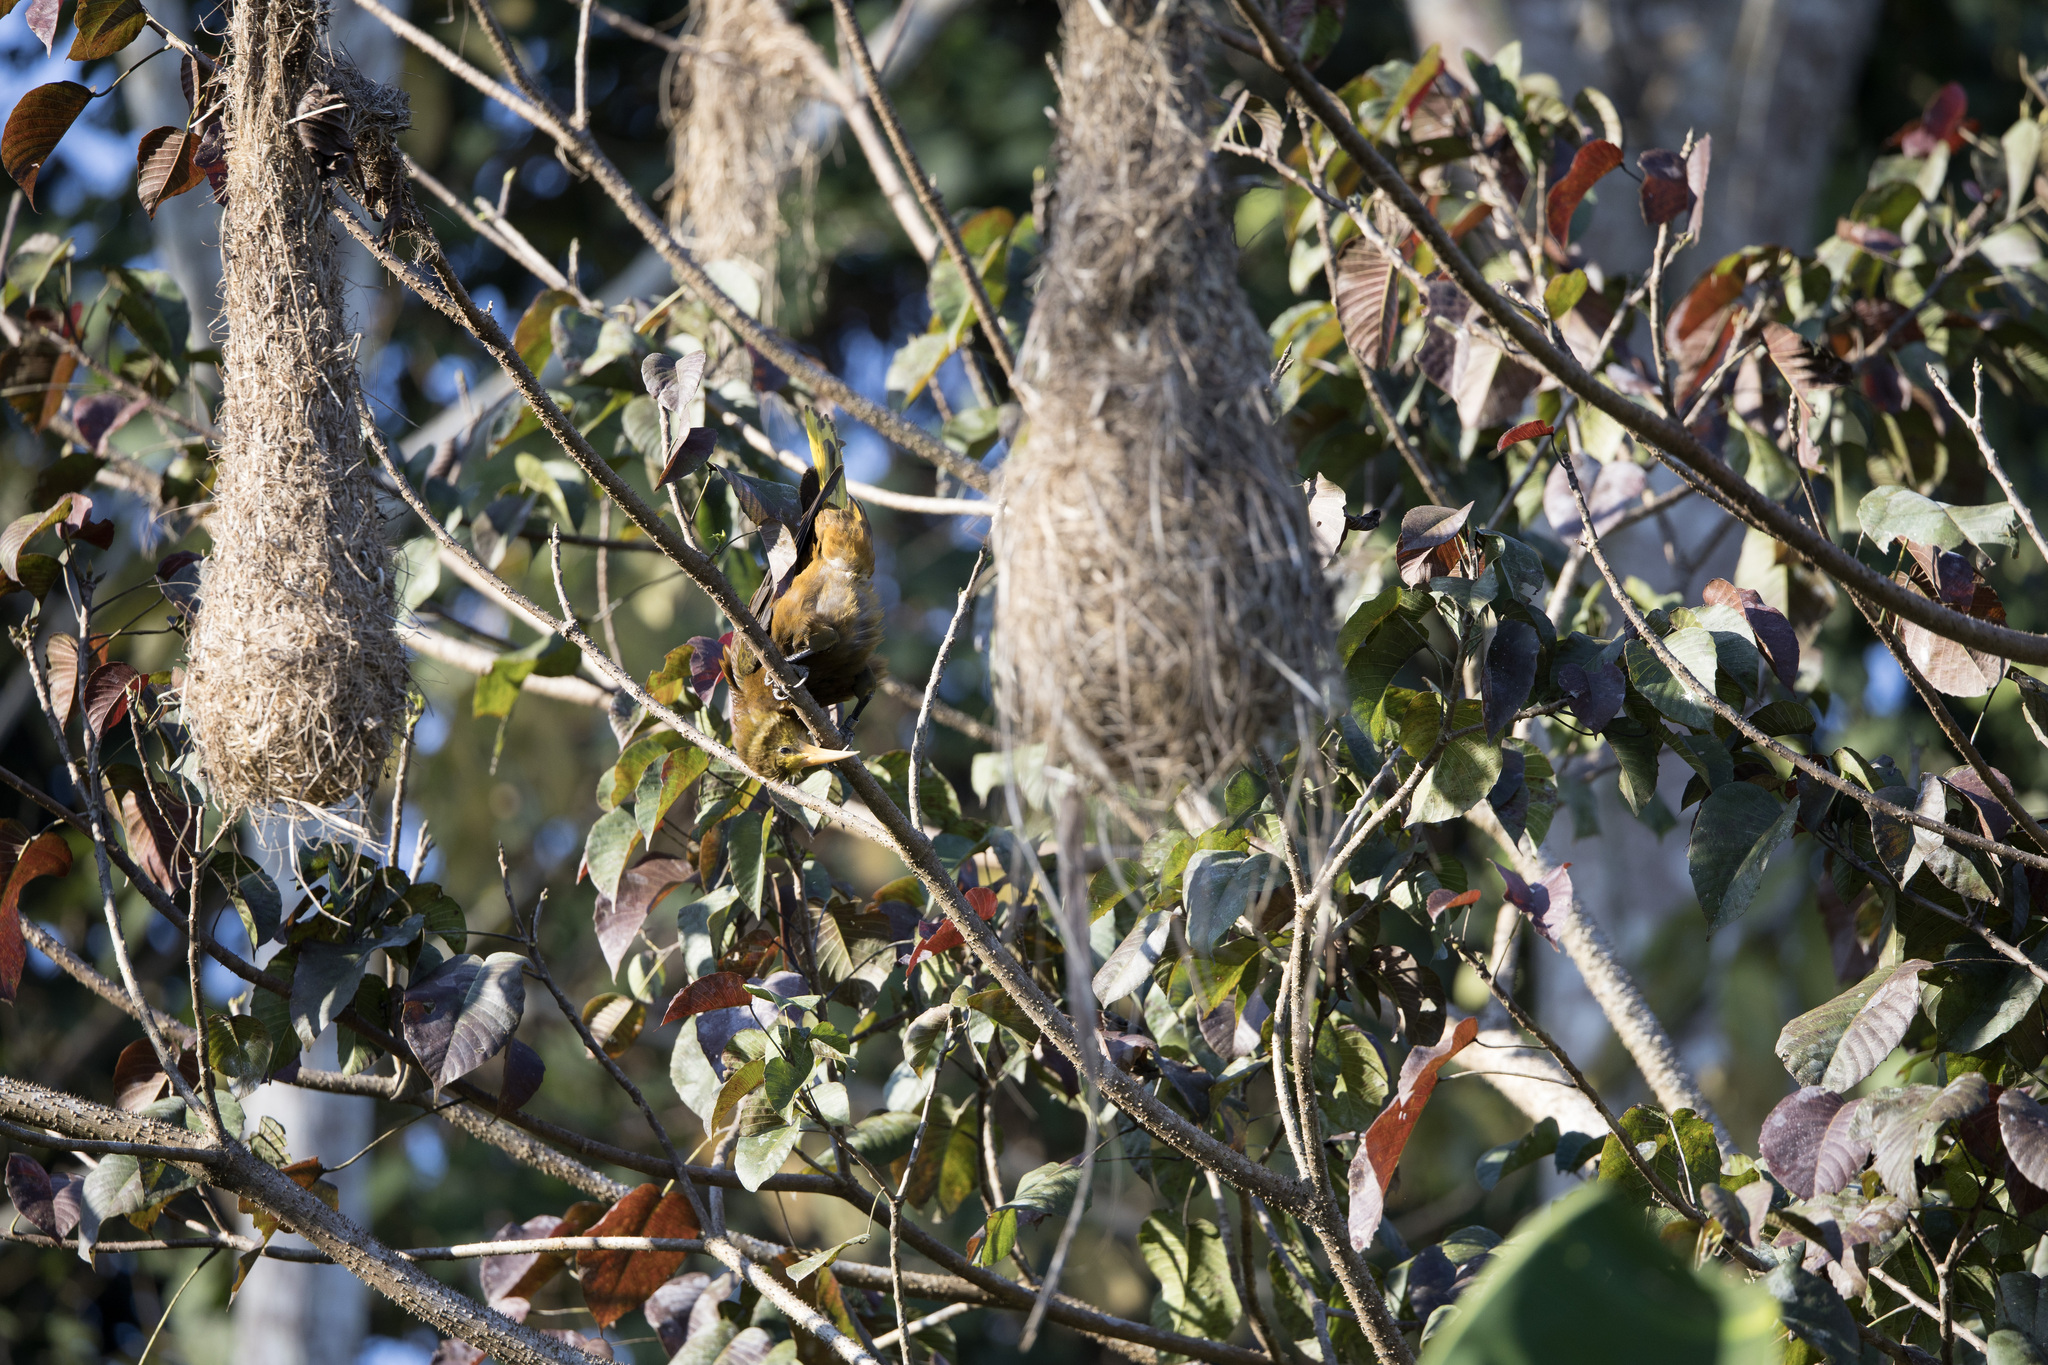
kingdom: Animalia
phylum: Chordata
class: Aves
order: Passeriformes
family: Icteridae
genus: Psarocolius
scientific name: Psarocolius angustifrons
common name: Russet-backed oropendola
